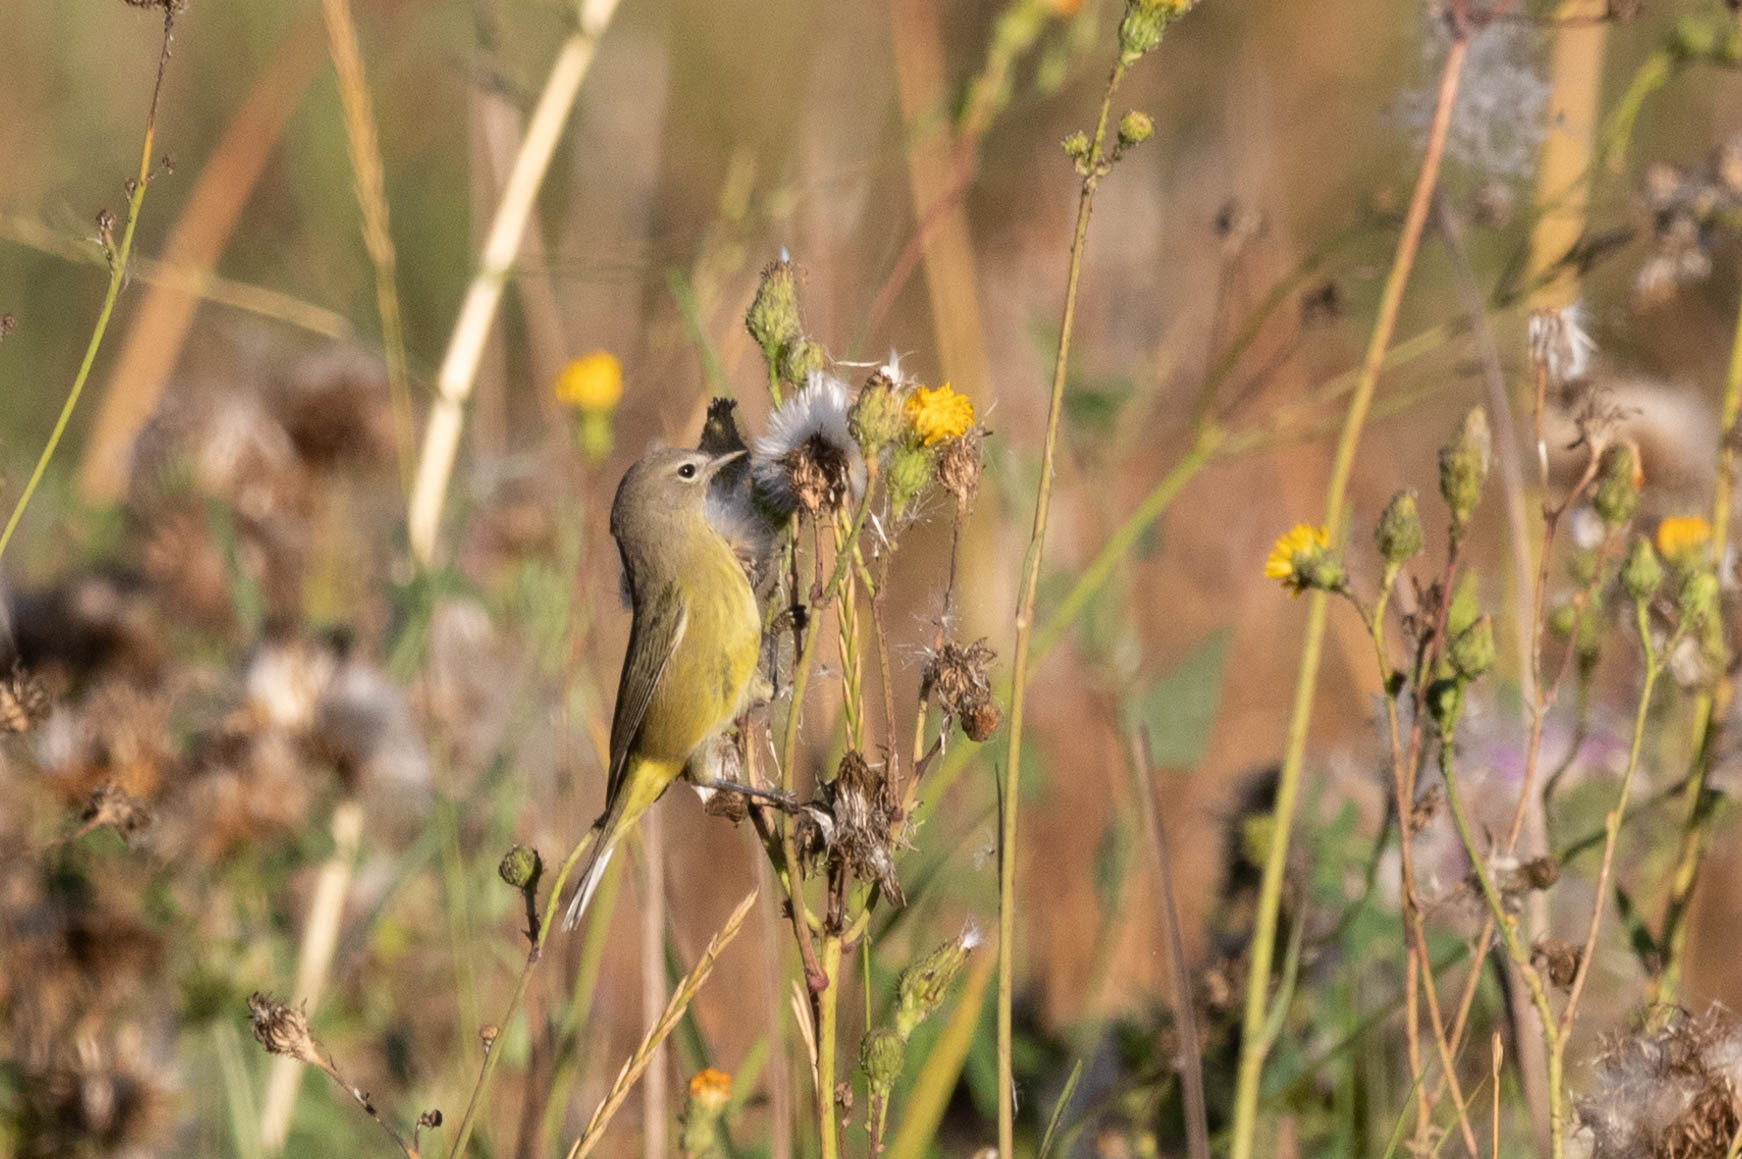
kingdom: Animalia
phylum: Chordata
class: Aves
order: Passeriformes
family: Parulidae
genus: Leiothlypis
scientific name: Leiothlypis celata
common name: Orange-crowned warbler
